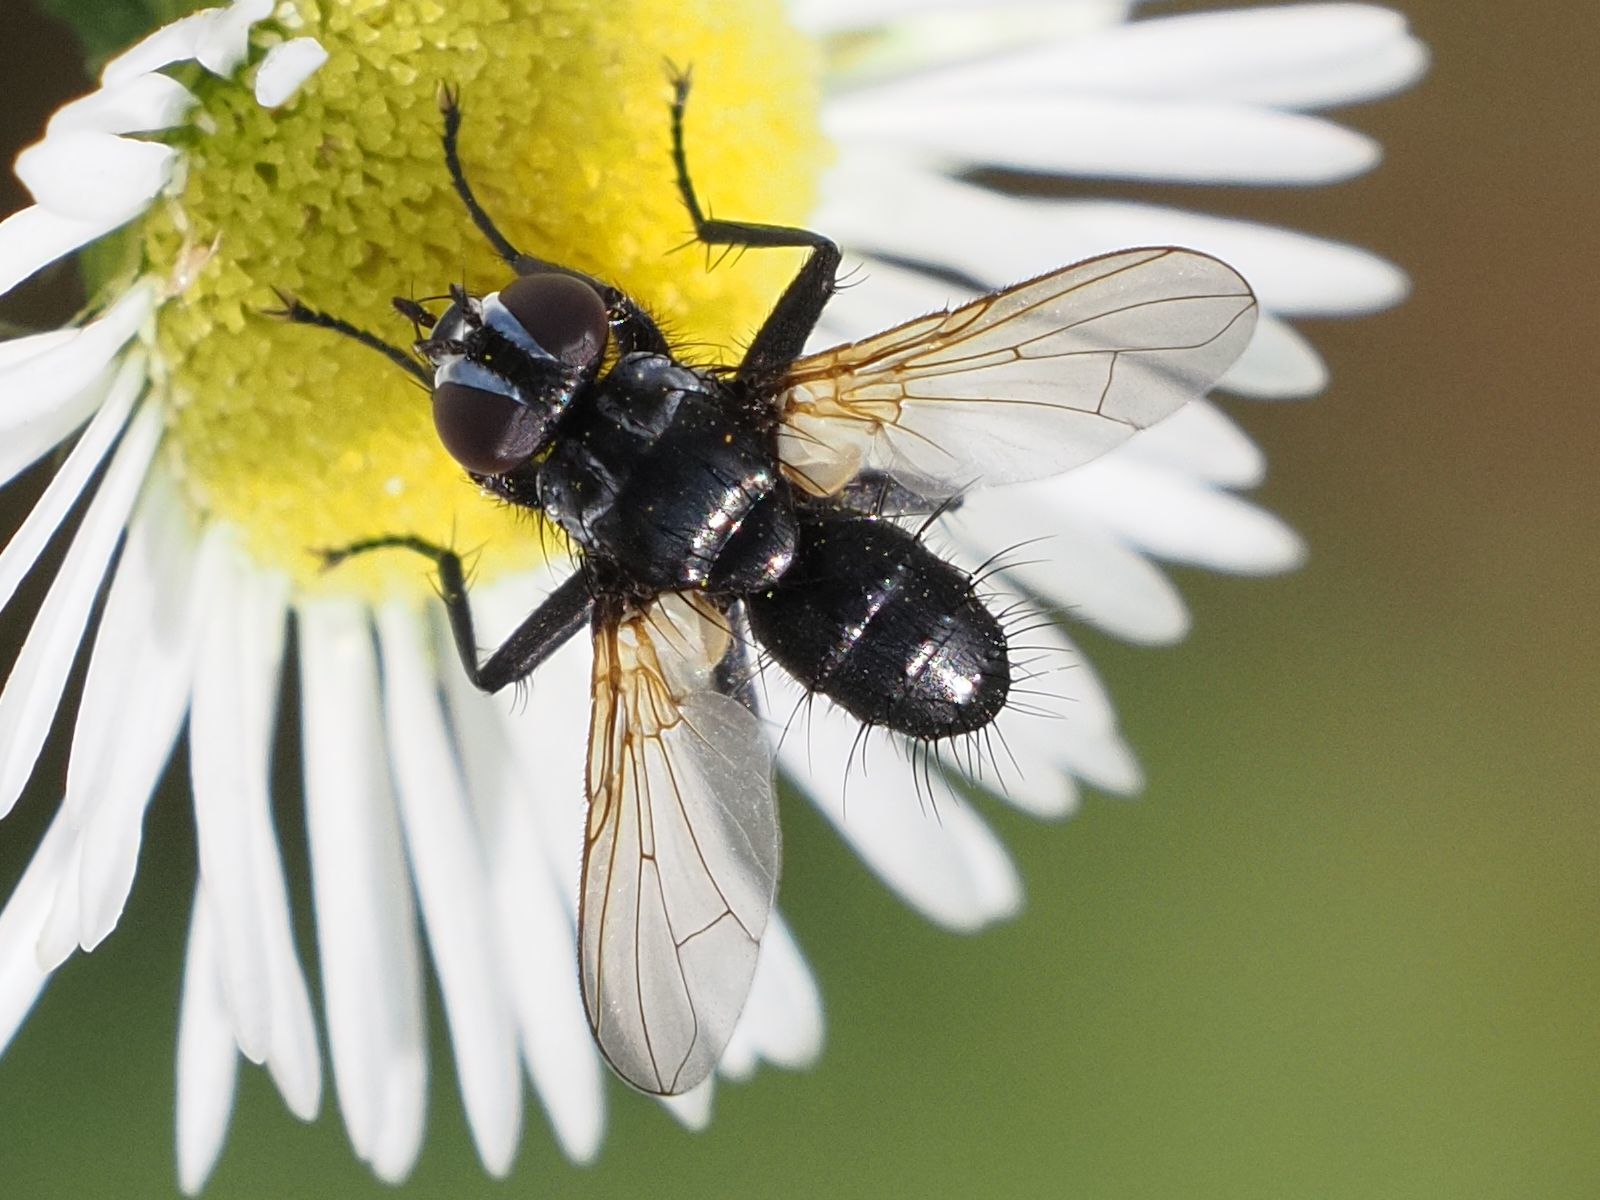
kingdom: Animalia
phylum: Arthropoda
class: Insecta
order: Diptera
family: Tachinidae
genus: Phania
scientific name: Phania funesta
